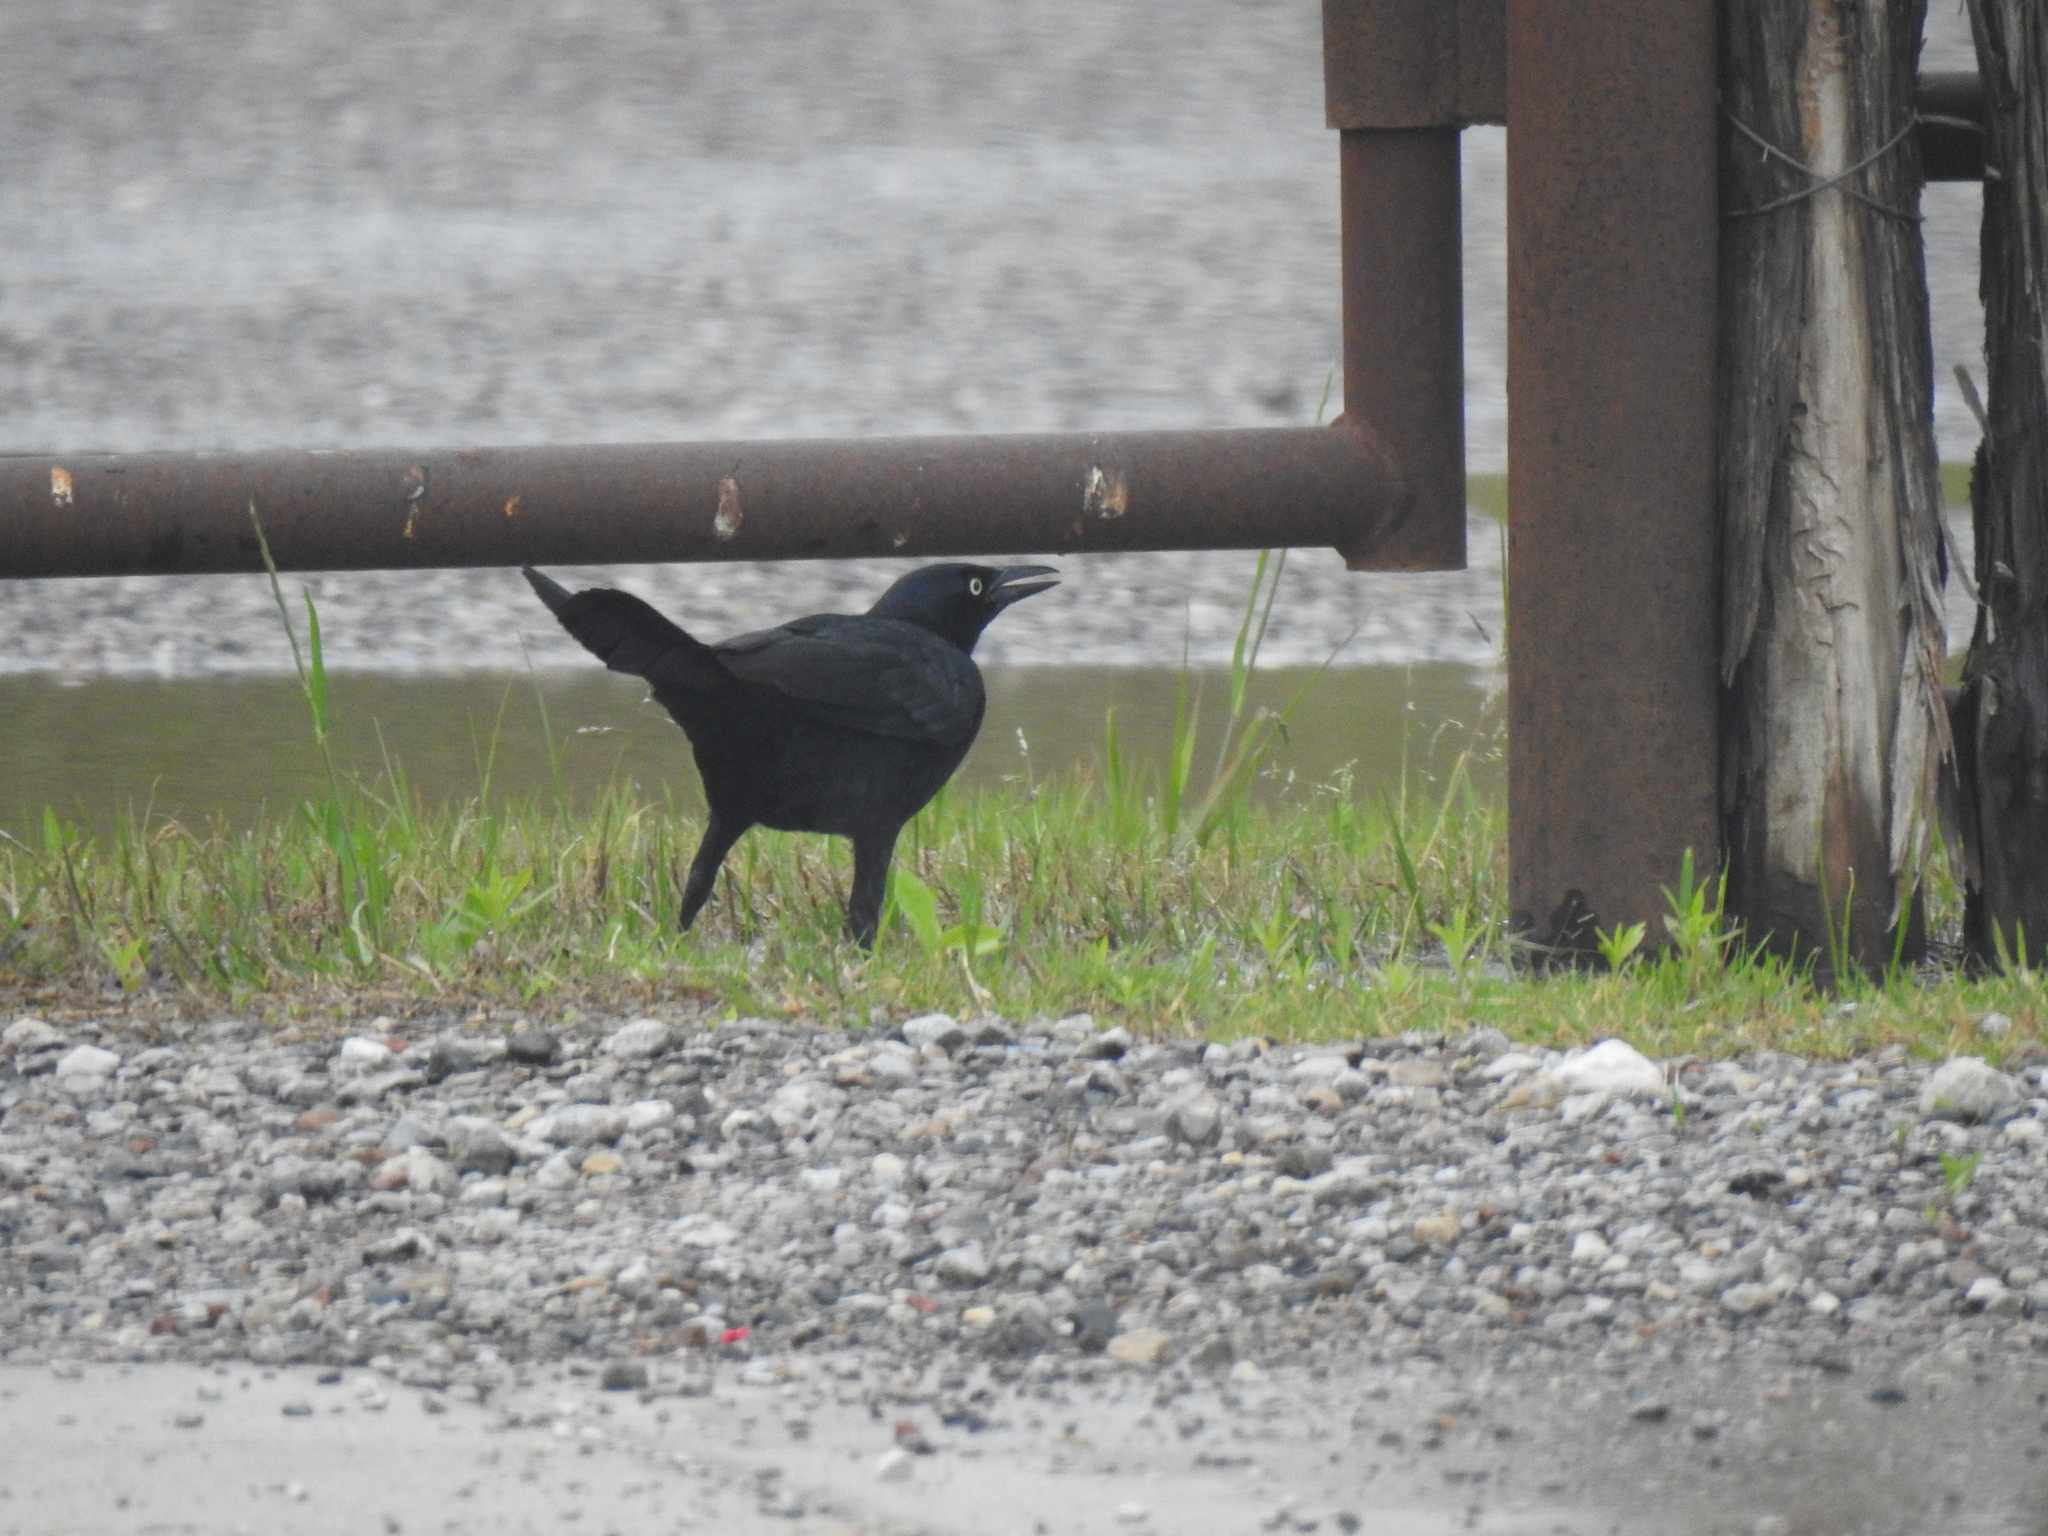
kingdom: Animalia
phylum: Chordata
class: Aves
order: Passeriformes
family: Icteridae
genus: Quiscalus
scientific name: Quiscalus mexicanus
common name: Great-tailed grackle
